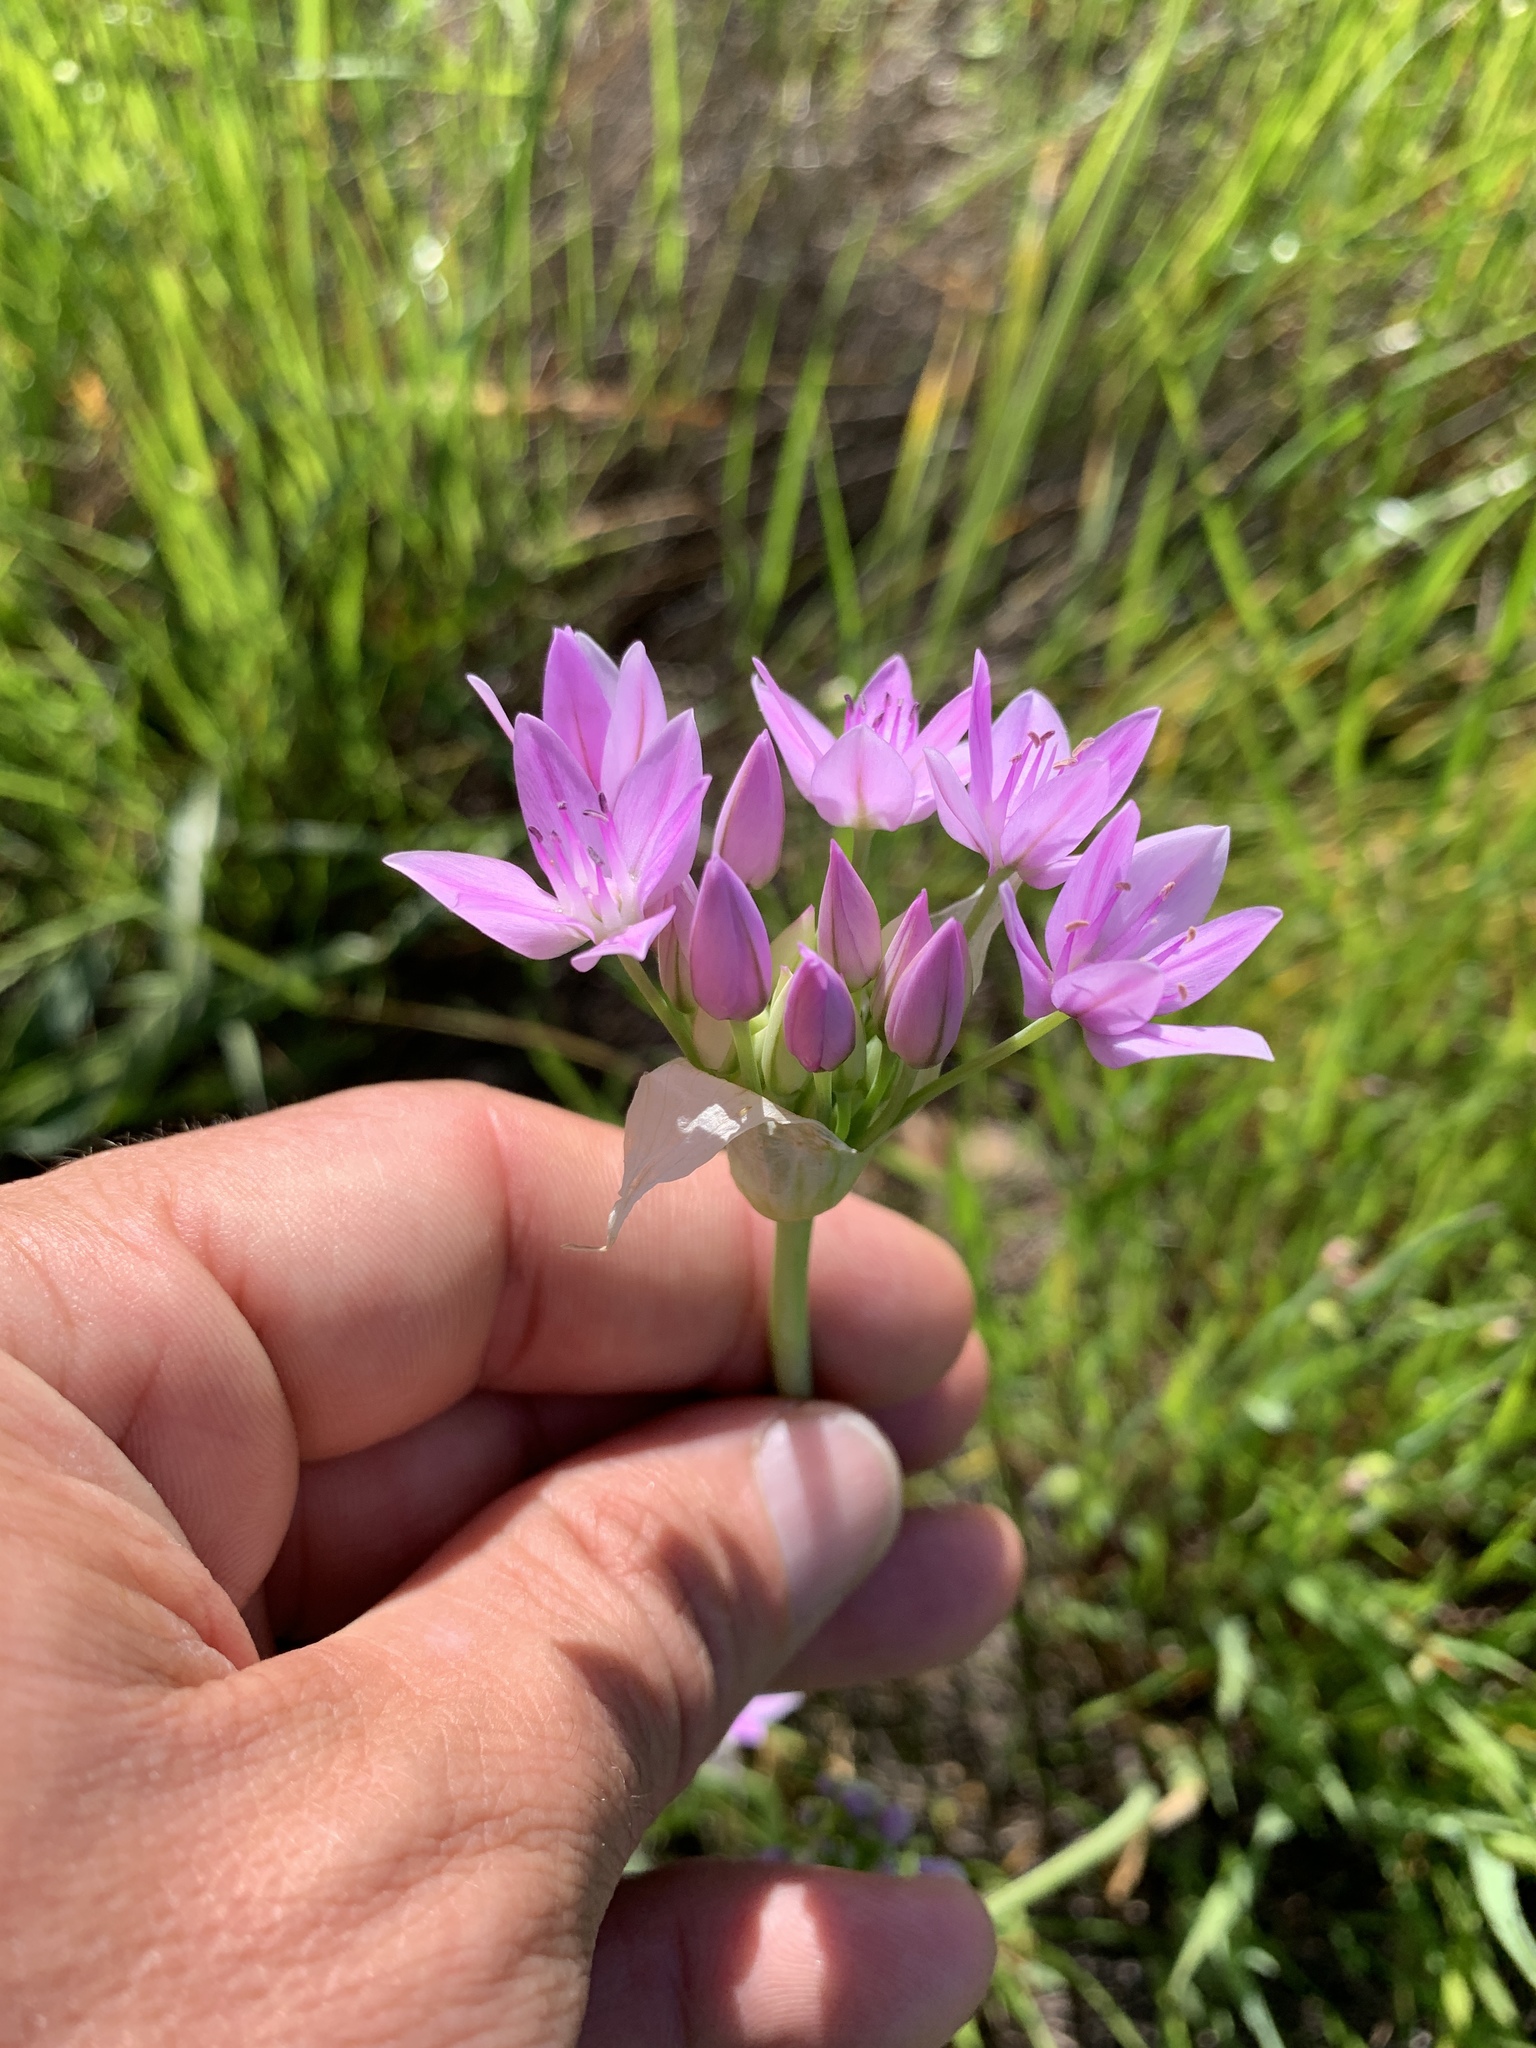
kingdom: Plantae
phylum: Tracheophyta
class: Liliopsida
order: Asparagales
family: Amaryllidaceae
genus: Allium
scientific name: Allium unifolium
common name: American garlic
